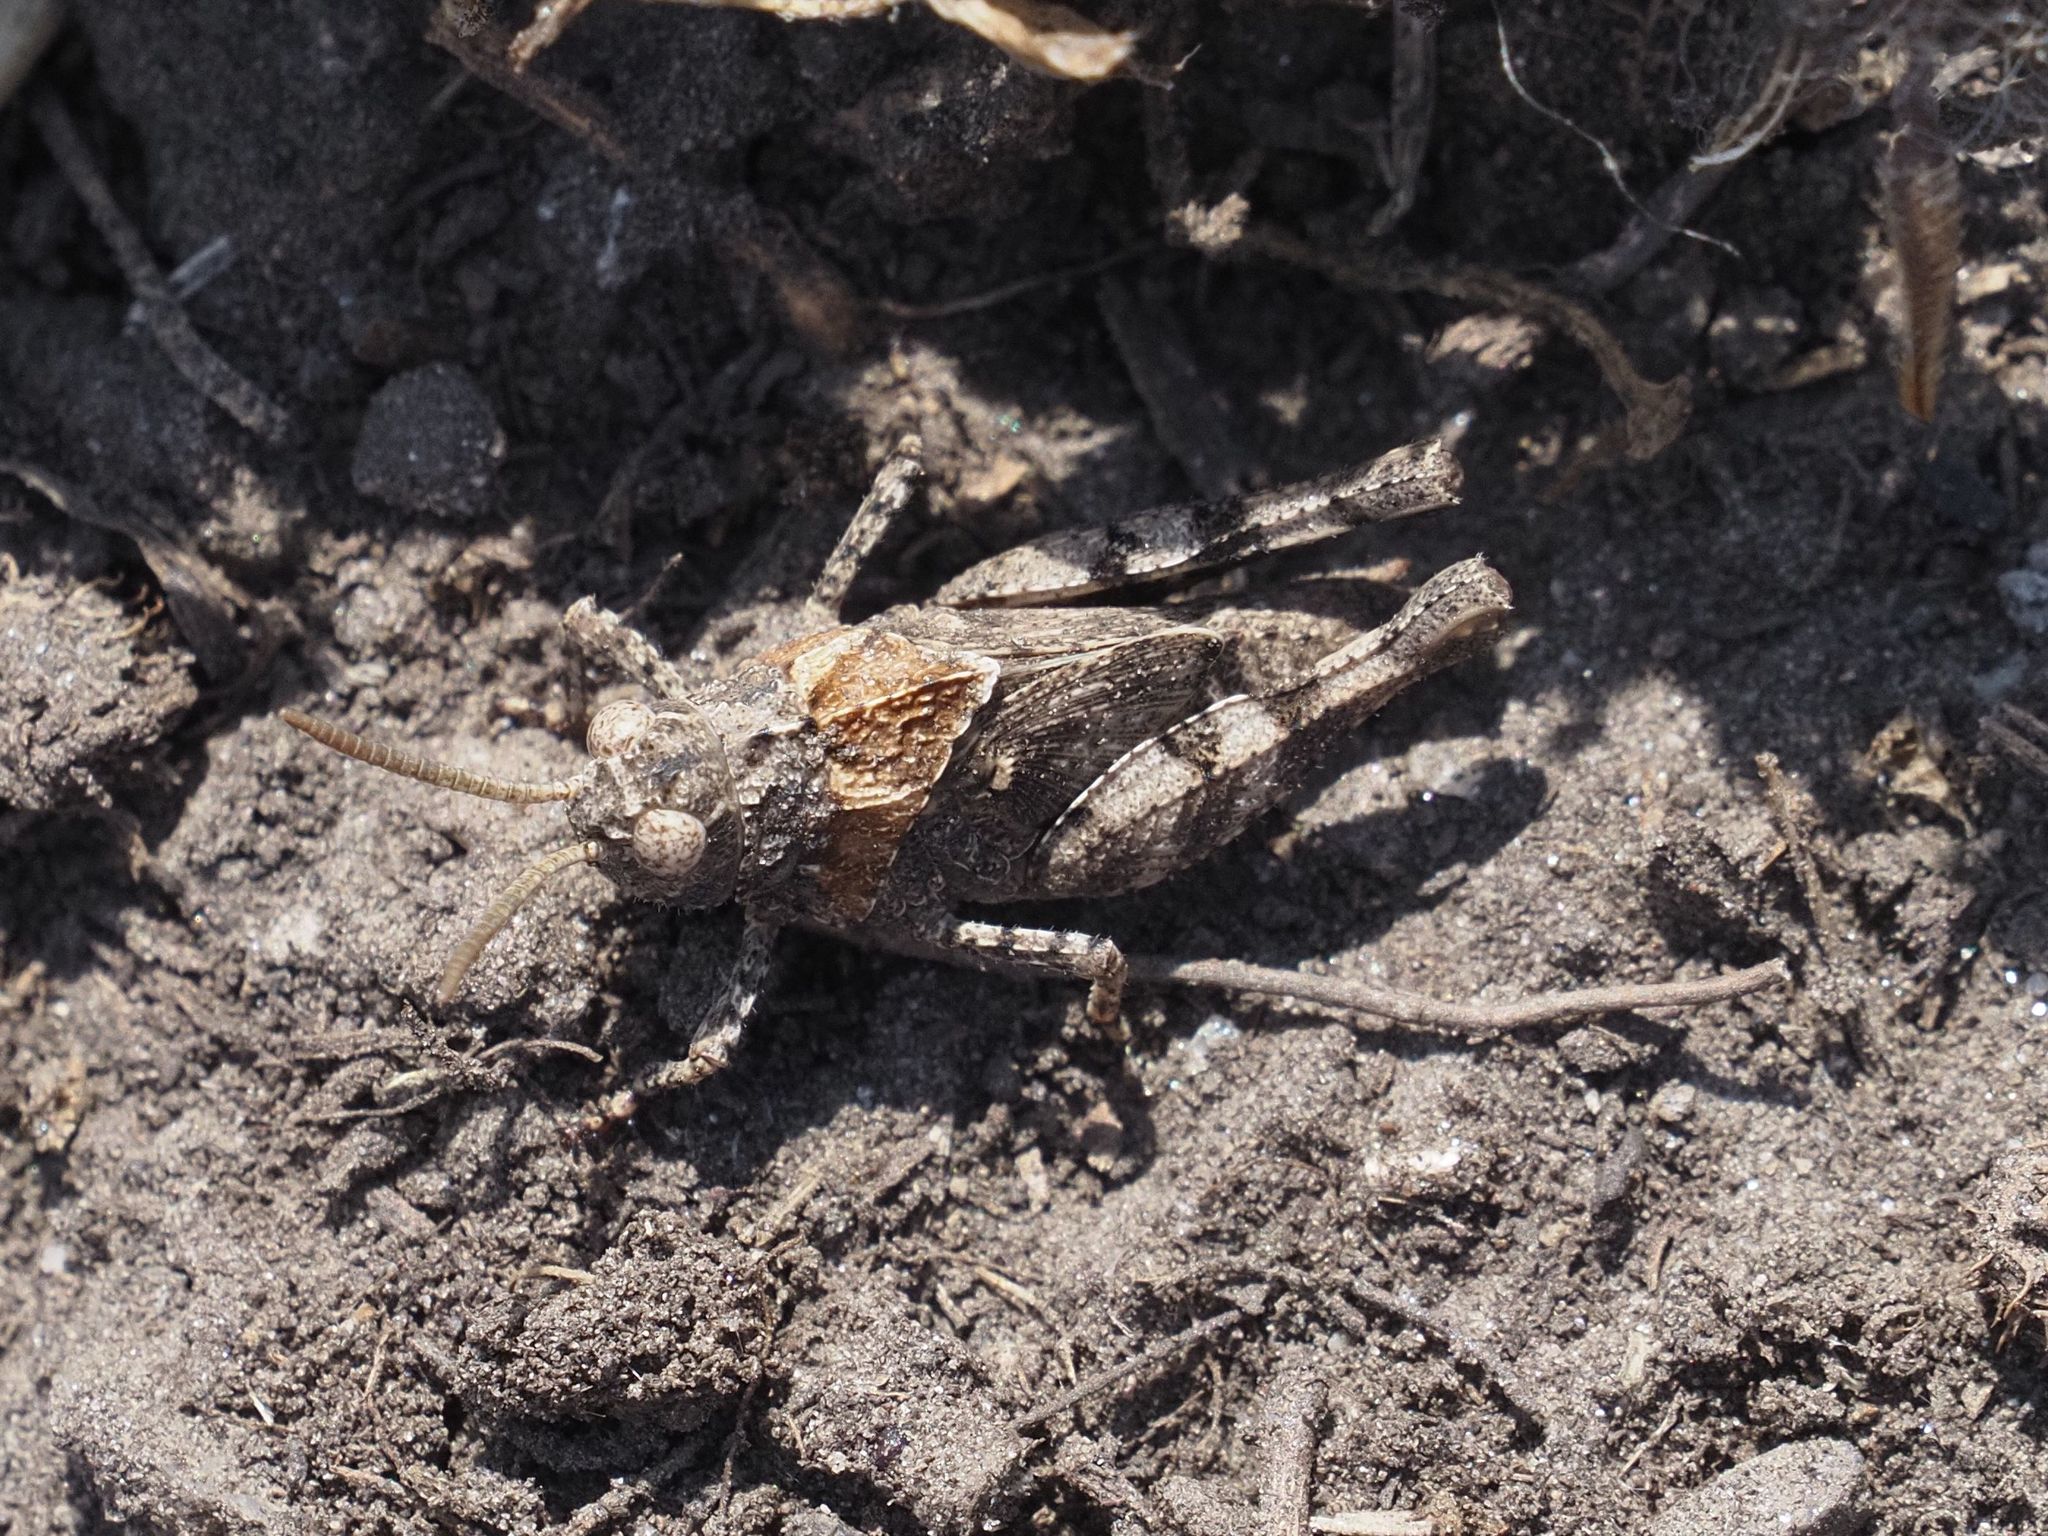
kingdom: Animalia
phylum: Arthropoda
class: Insecta
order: Orthoptera
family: Acrididae
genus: Oedipoda
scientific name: Oedipoda caerulescens
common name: Blue-winged grasshopper
